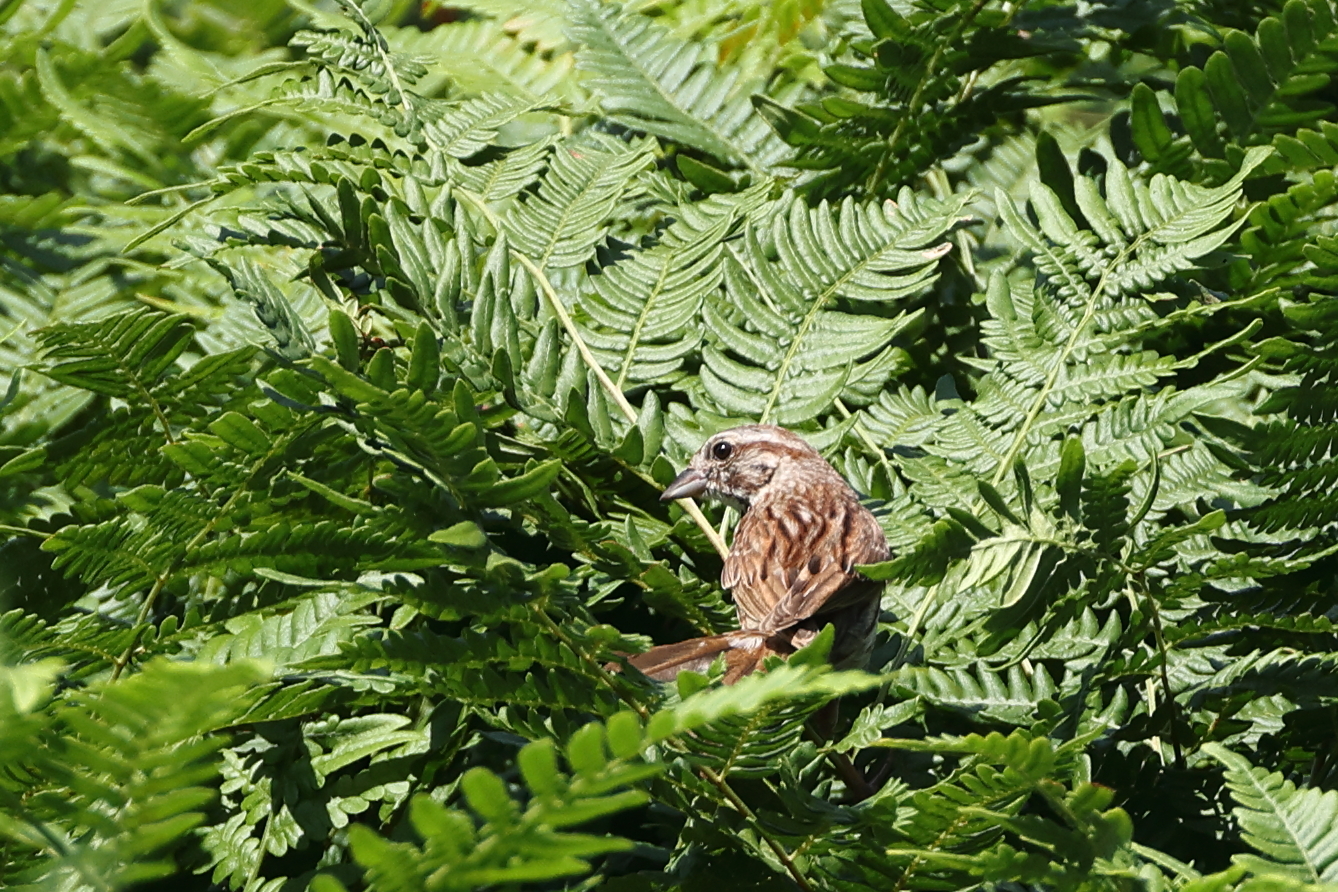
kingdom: Animalia
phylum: Chordata
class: Aves
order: Passeriformes
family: Passerellidae
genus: Melospiza
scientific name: Melospiza melodia
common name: Song sparrow
